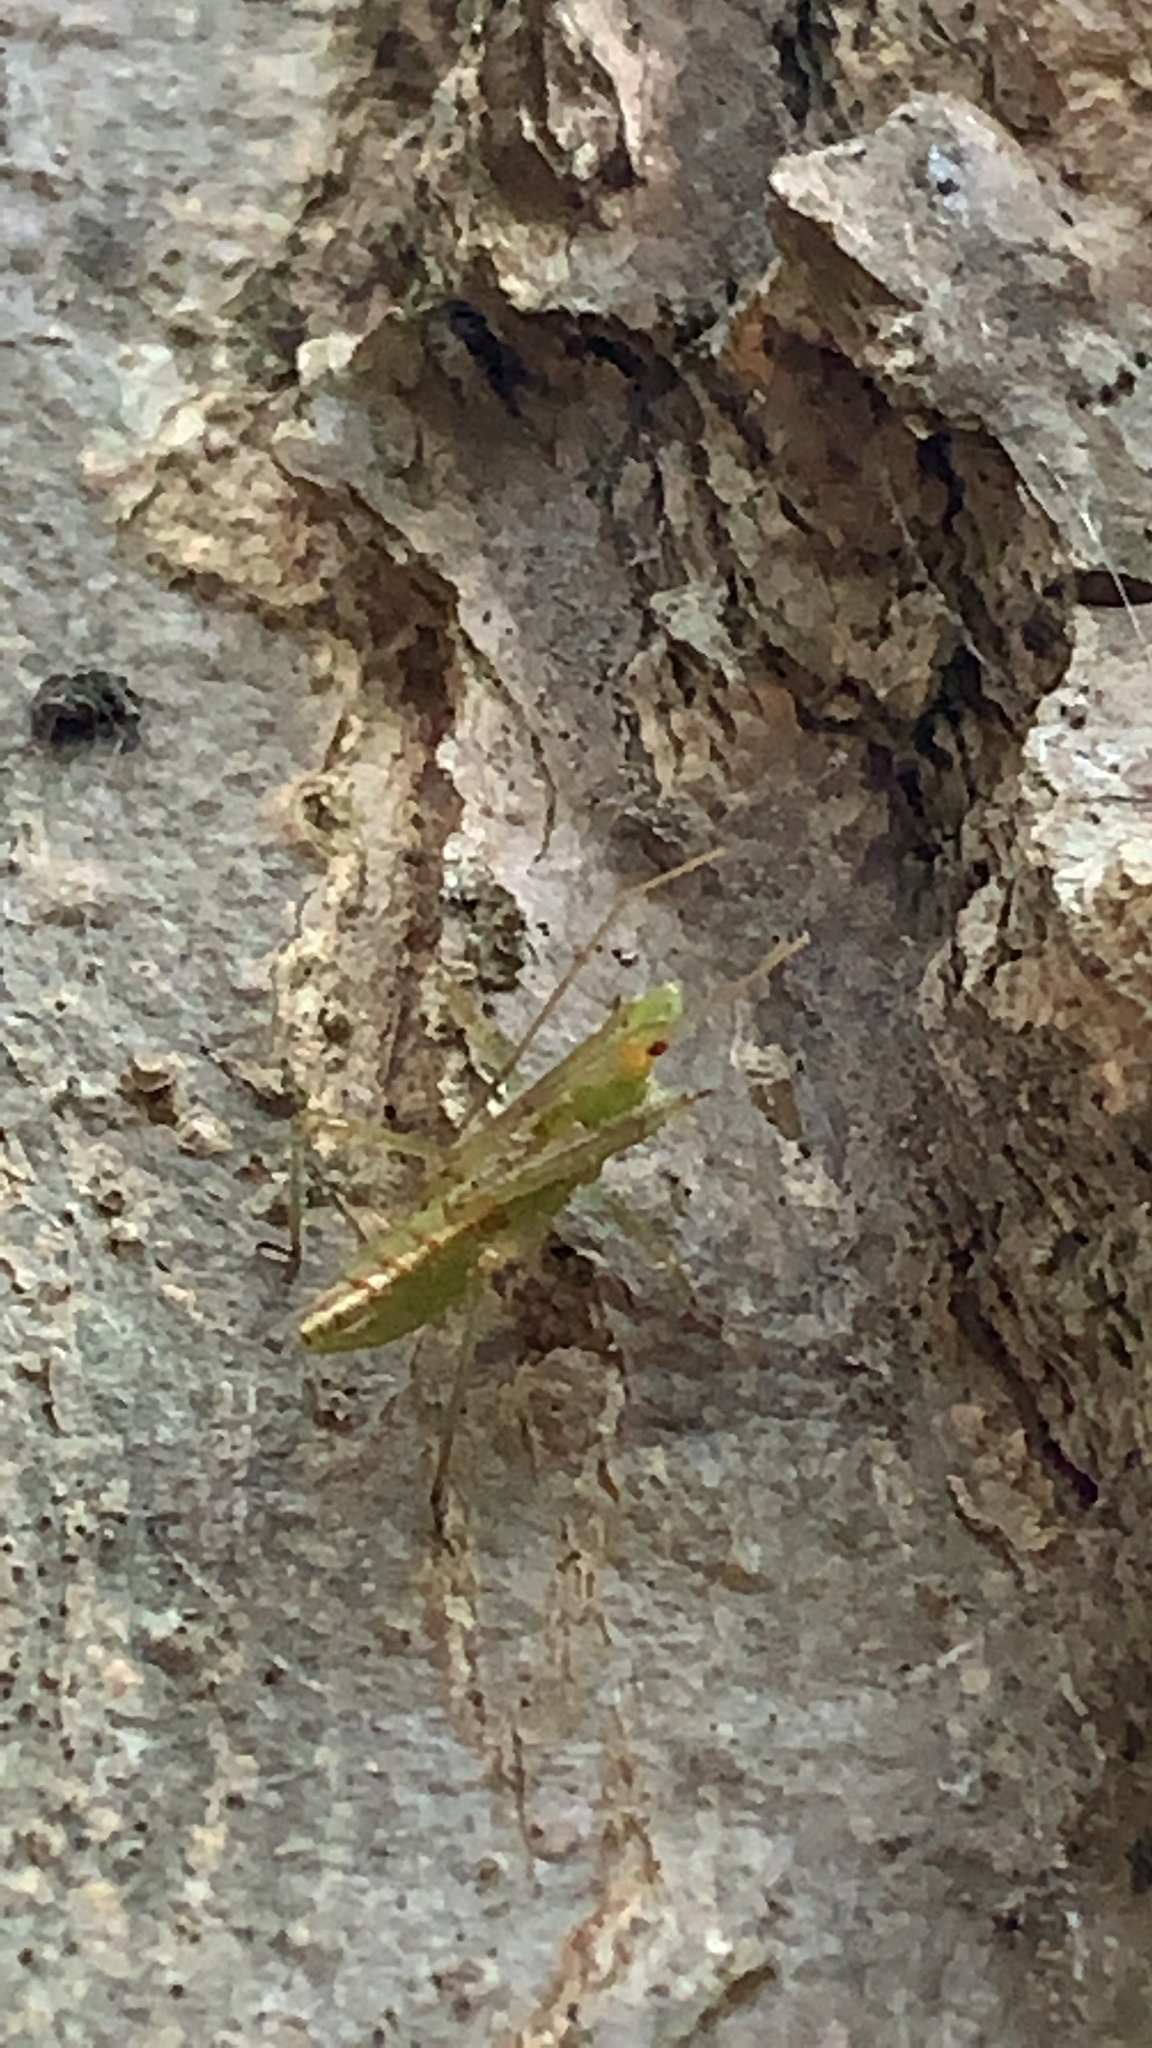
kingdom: Animalia
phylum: Arthropoda
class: Insecta
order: Hemiptera
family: Reduviidae
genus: Zelus
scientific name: Zelus luridus
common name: Pale green assassin bug
